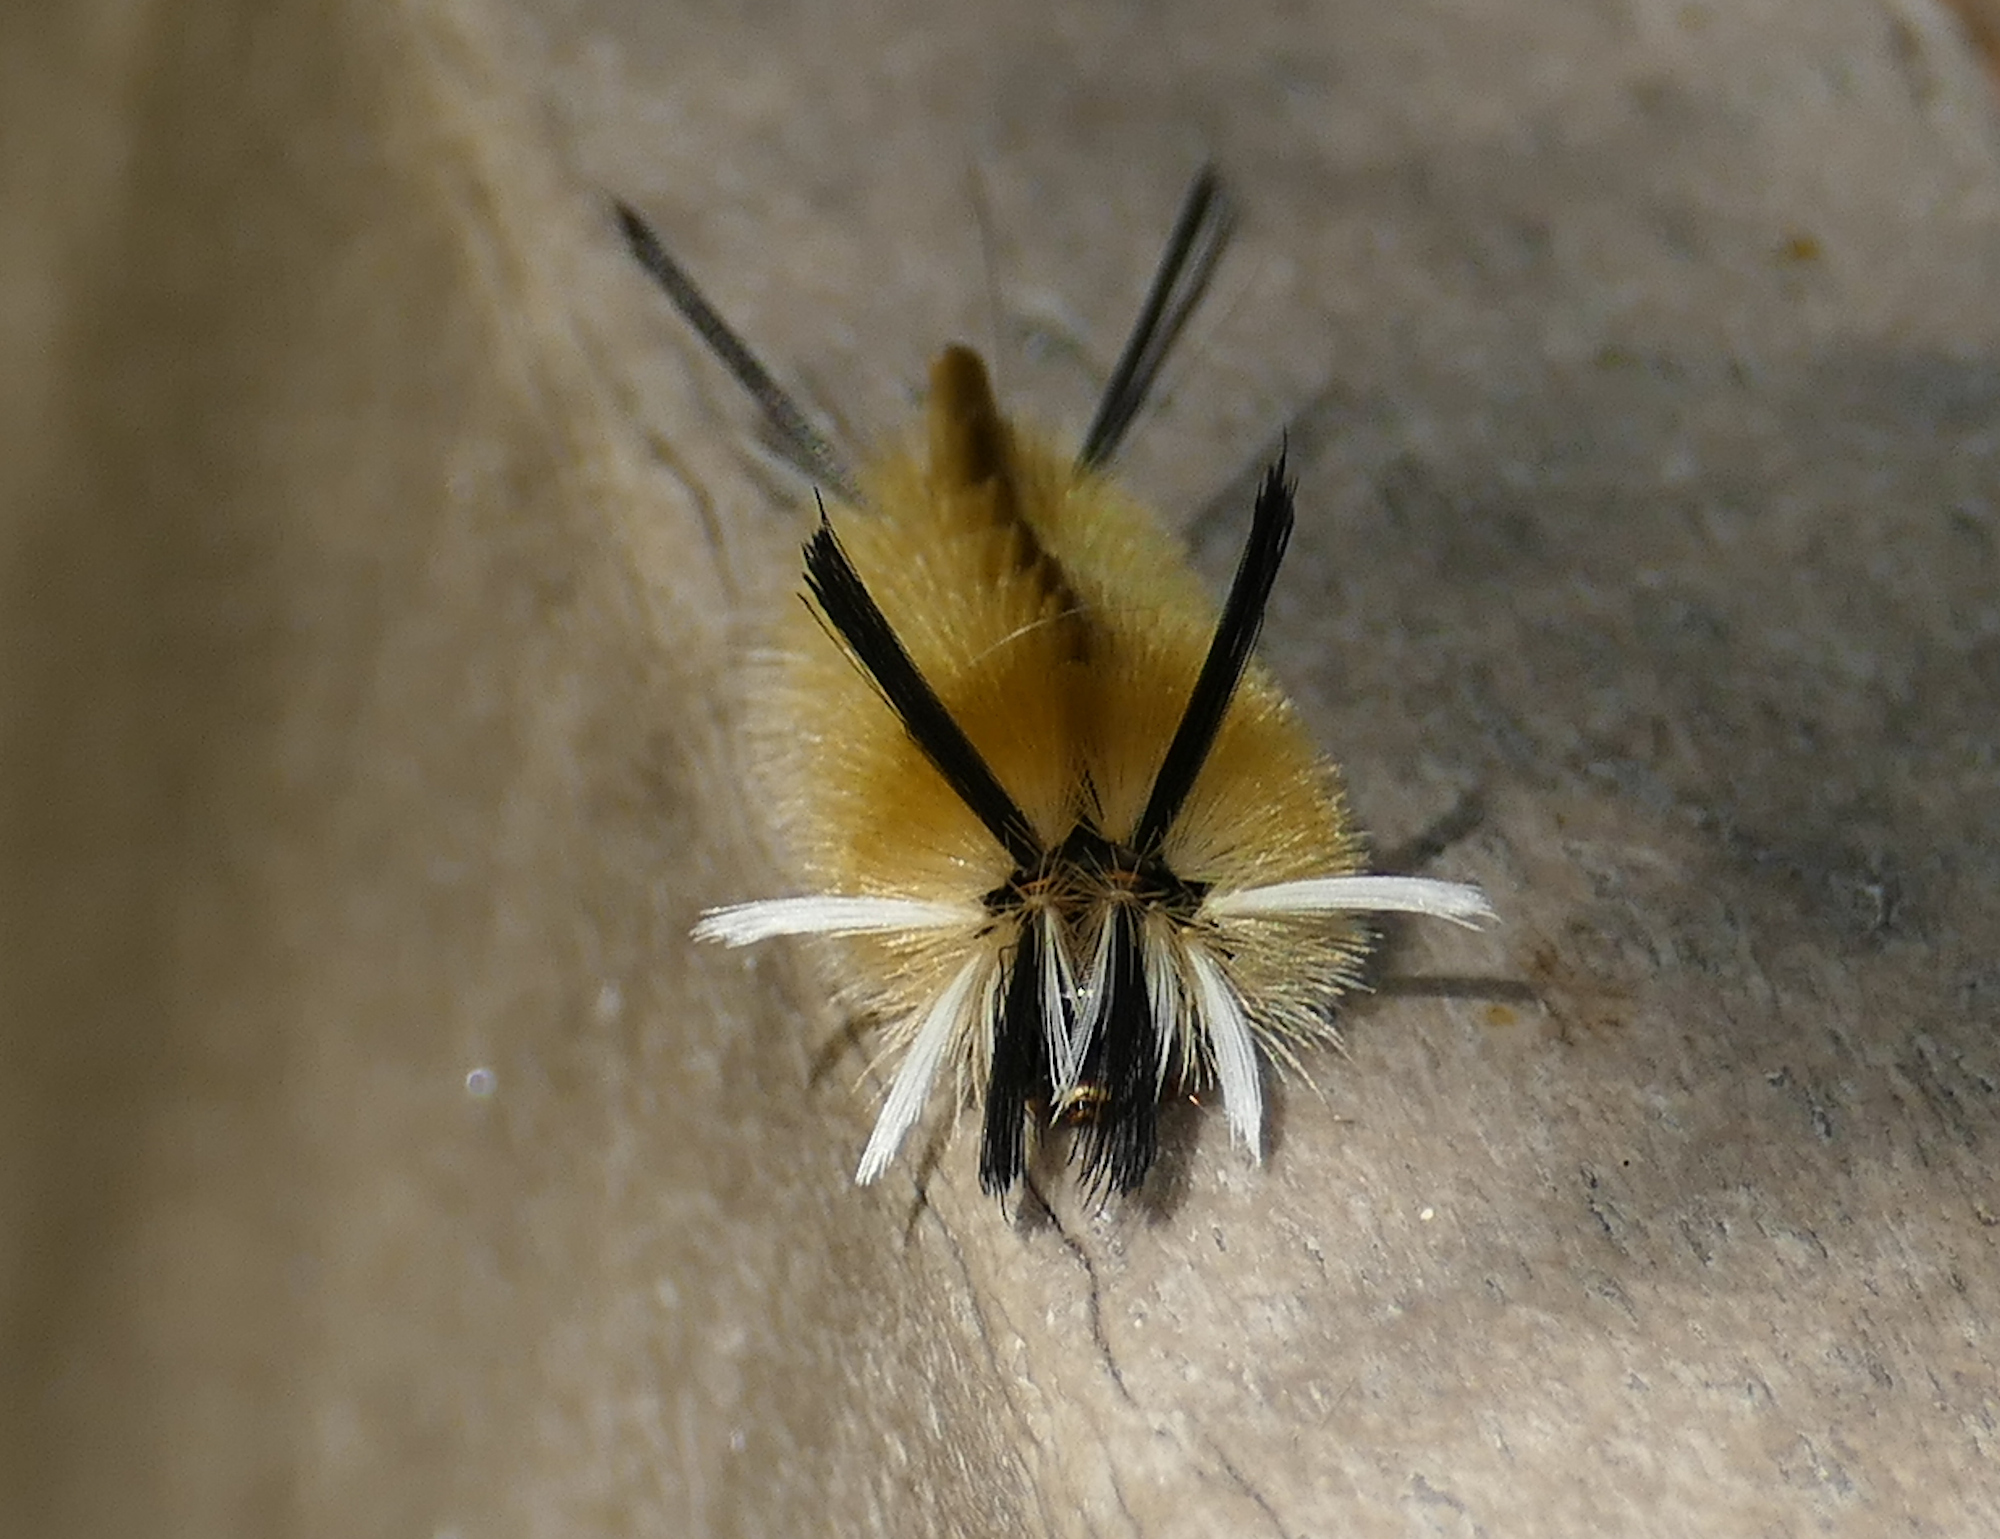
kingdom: Animalia
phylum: Arthropoda
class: Insecta
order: Lepidoptera
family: Erebidae
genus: Halysidota
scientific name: Halysidota tessellaris
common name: Banded tussock moth
